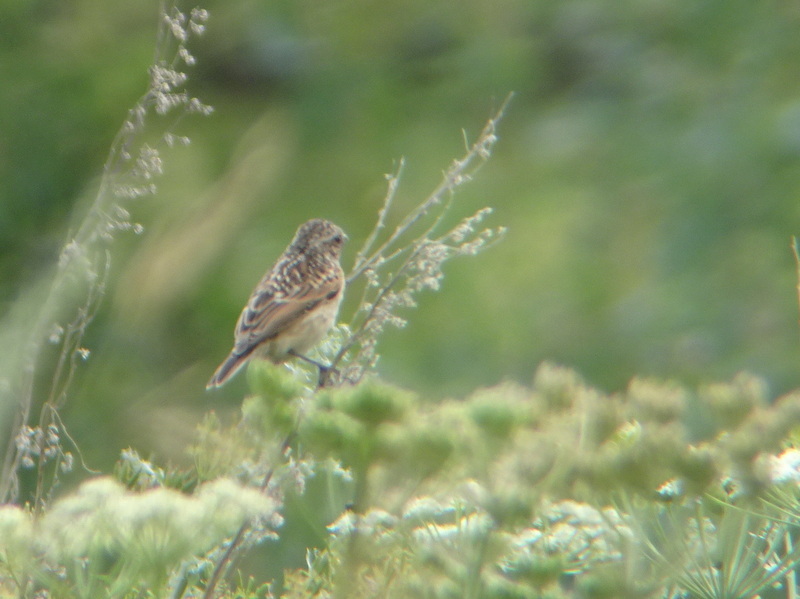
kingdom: Animalia
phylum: Chordata
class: Aves
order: Passeriformes
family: Muscicapidae
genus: Saxicola
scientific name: Saxicola rubetra
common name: Whinchat
